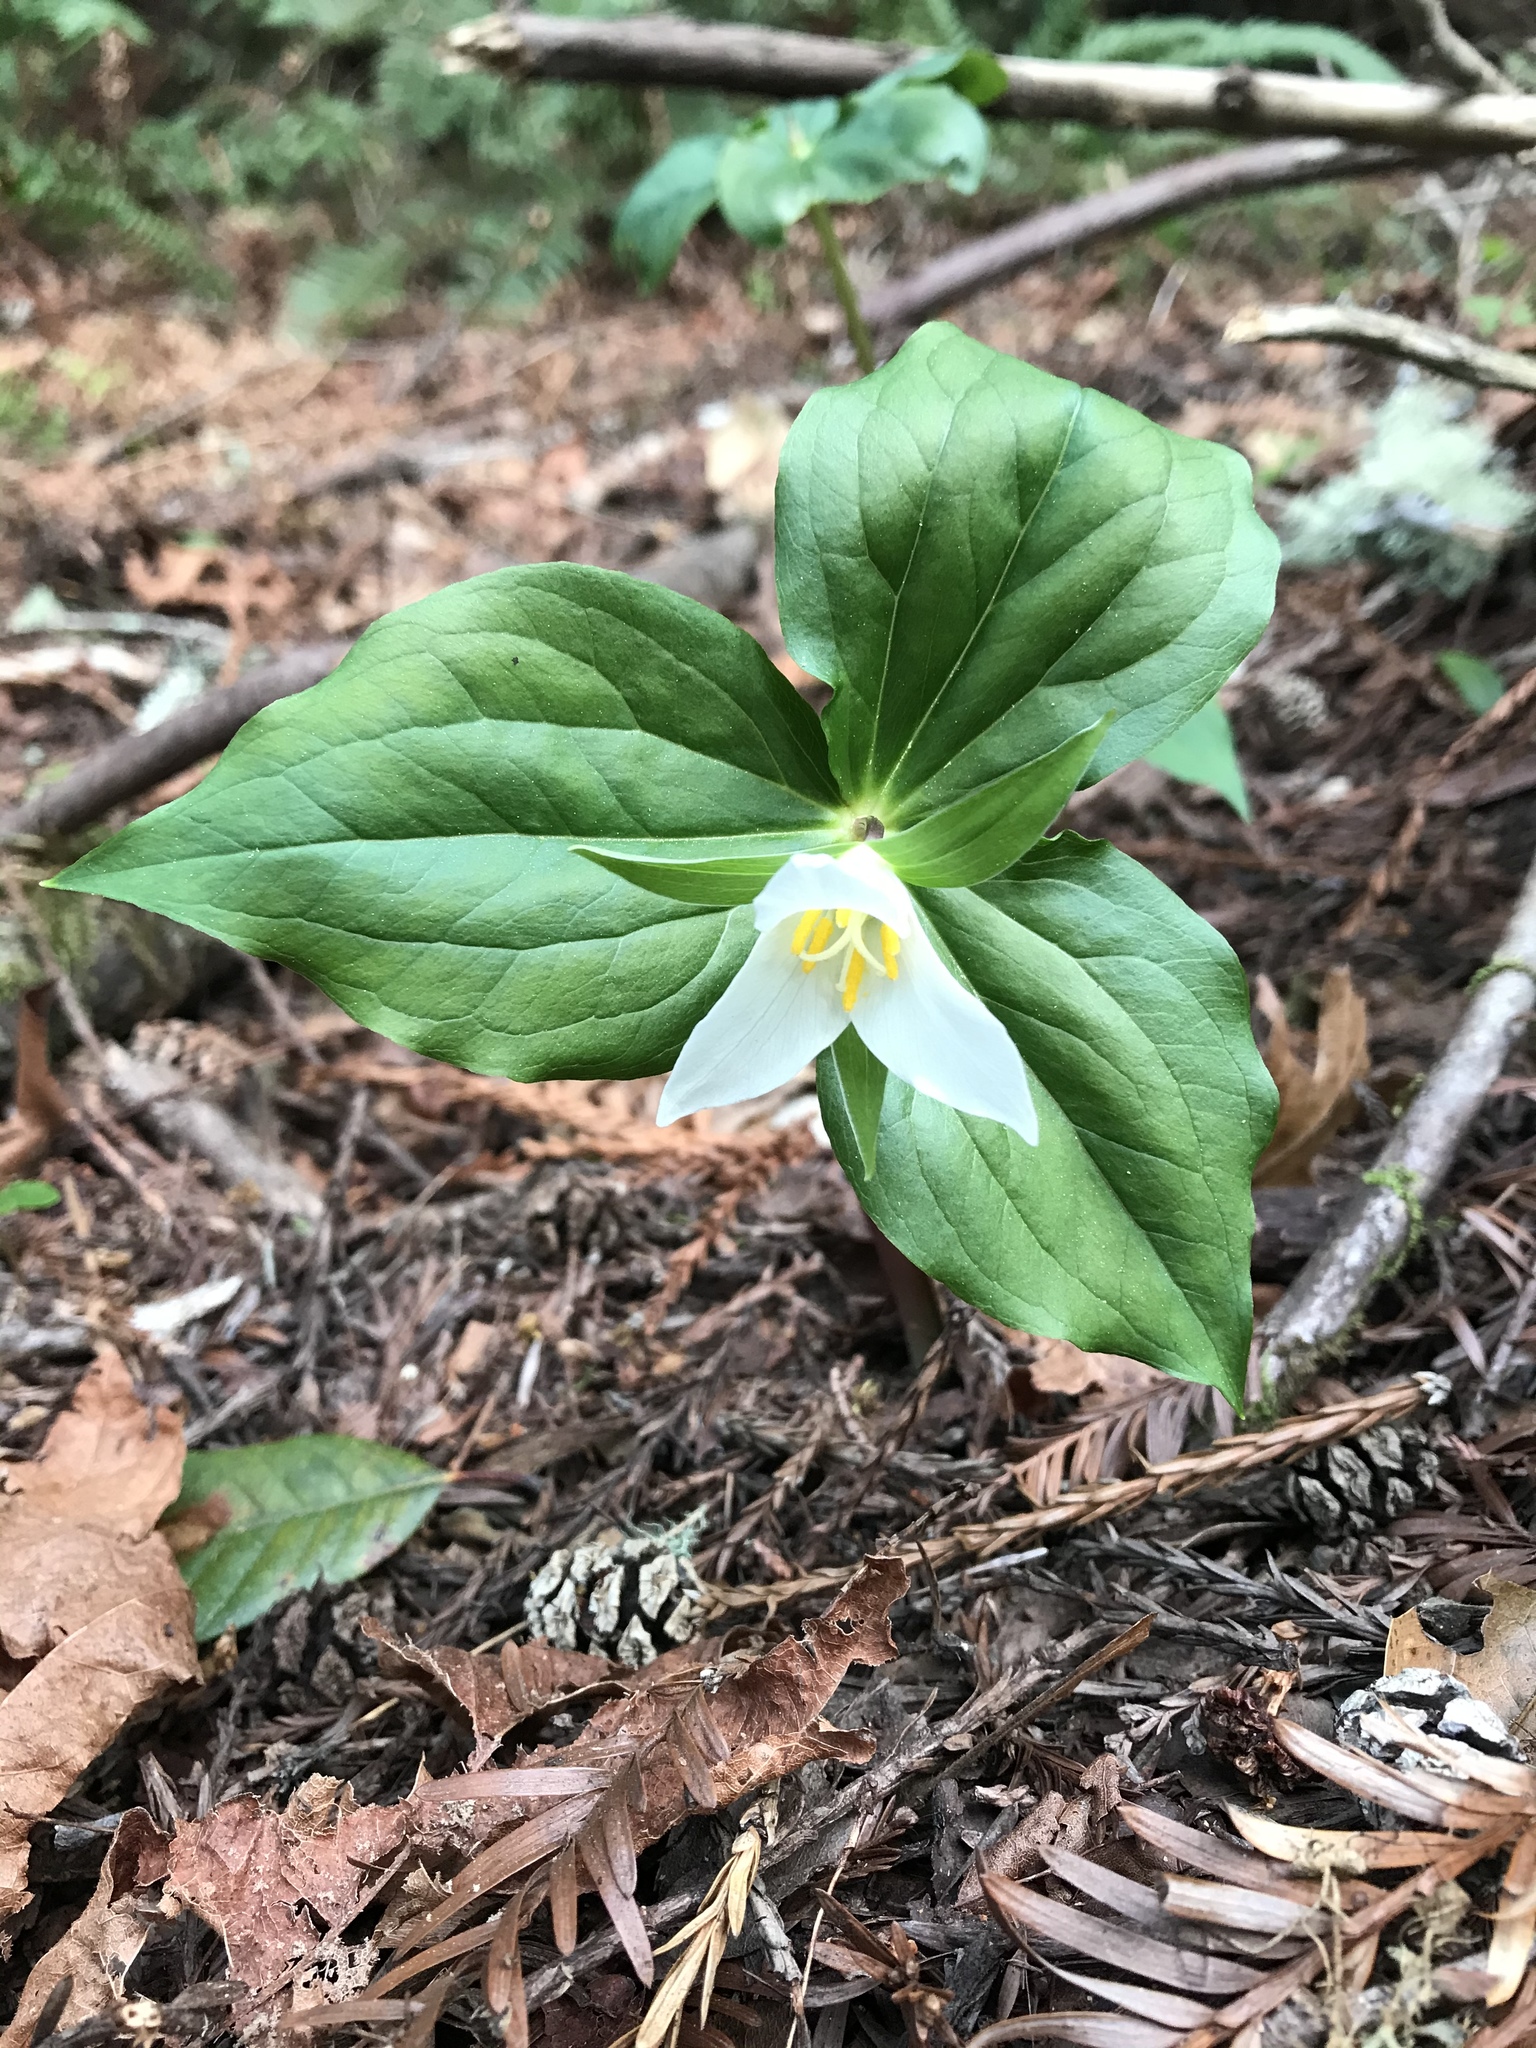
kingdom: Plantae
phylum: Tracheophyta
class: Liliopsida
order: Liliales
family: Melanthiaceae
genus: Trillium
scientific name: Trillium ovatum
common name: Pacific trillium
